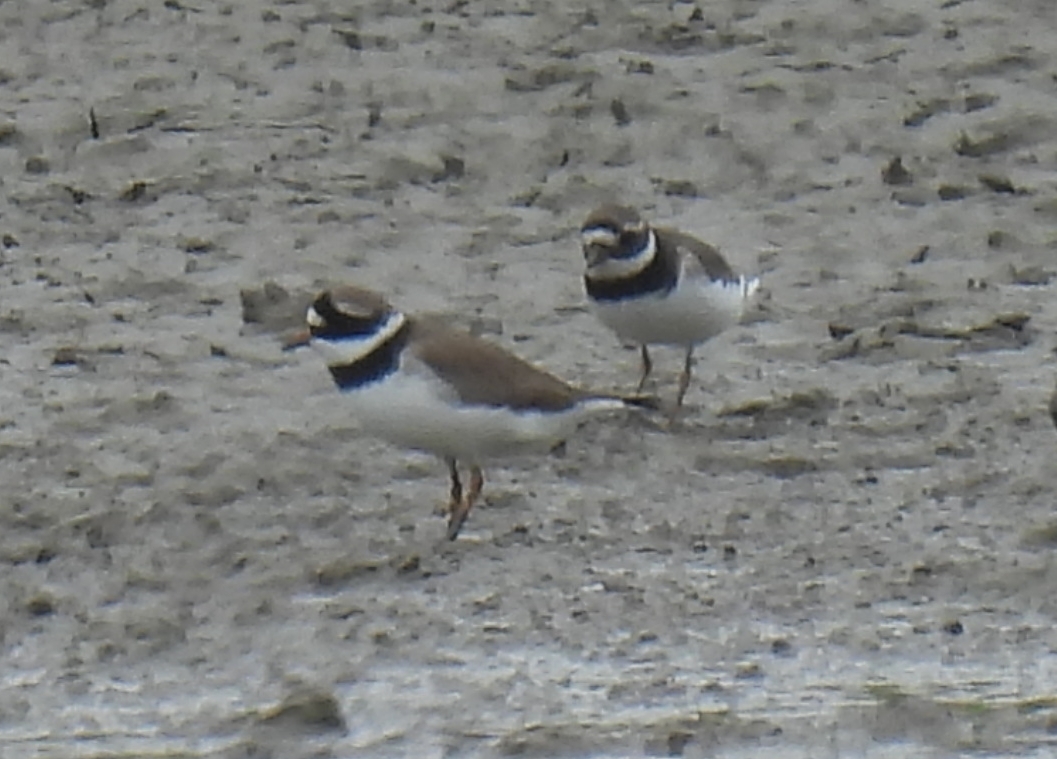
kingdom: Animalia
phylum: Chordata
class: Aves
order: Charadriiformes
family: Charadriidae
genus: Charadrius
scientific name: Charadrius hiaticula
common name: Common ringed plover
